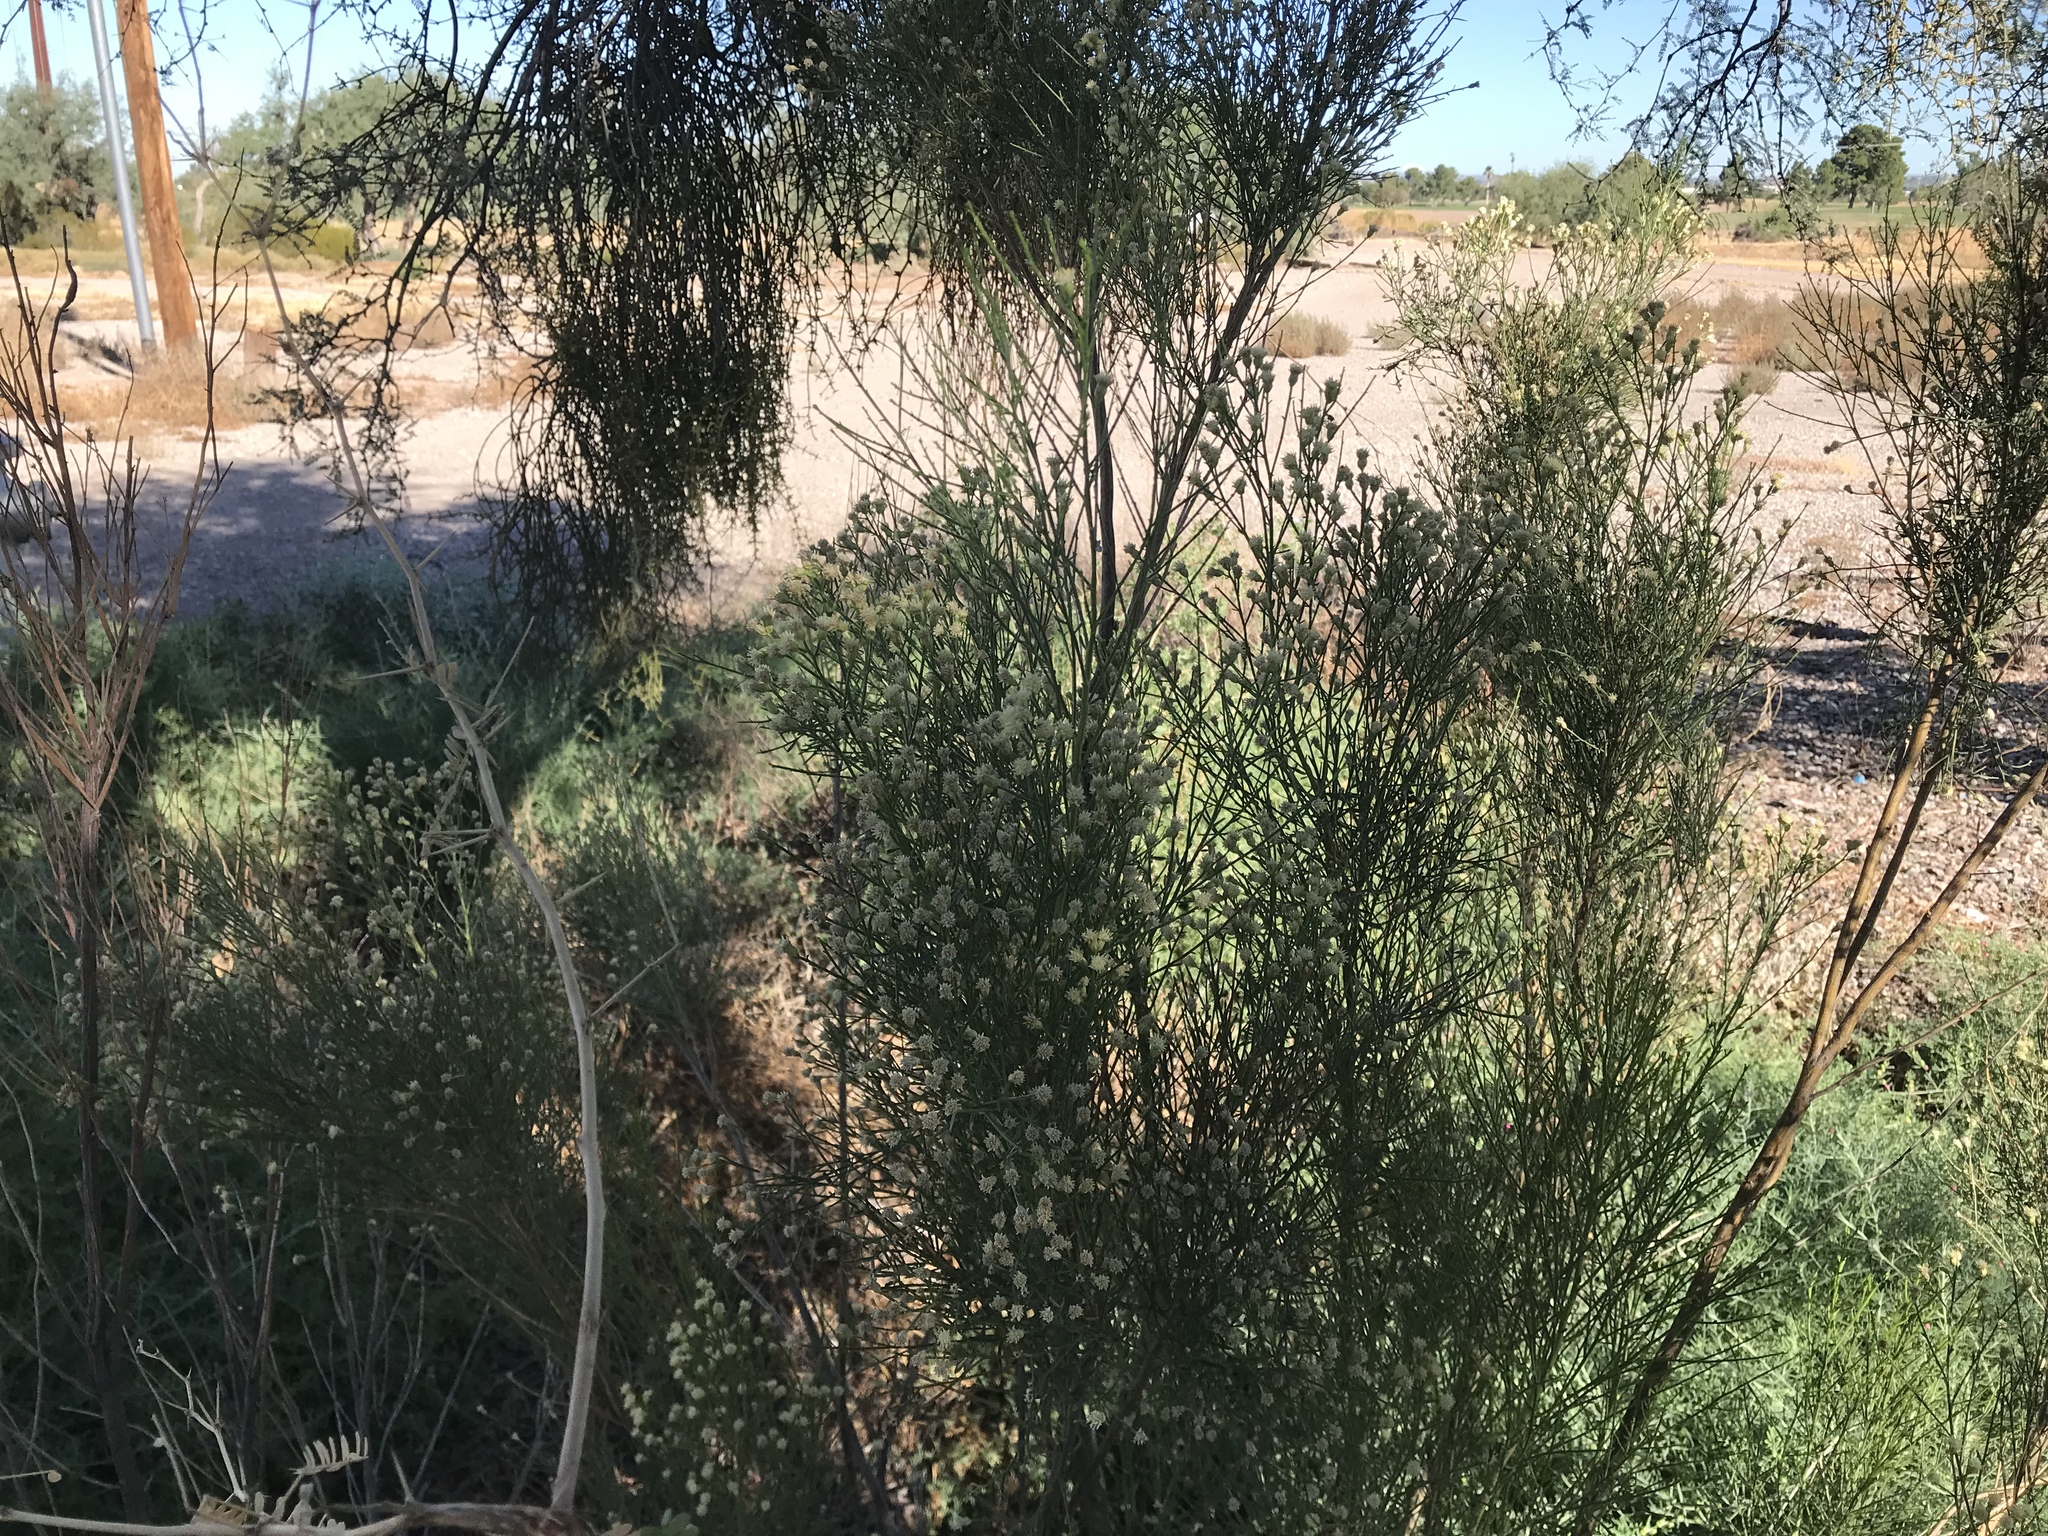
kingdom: Plantae
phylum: Tracheophyta
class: Magnoliopsida
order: Asterales
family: Asteraceae
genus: Baccharis
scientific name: Baccharis sarothroides
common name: Desert-broom
